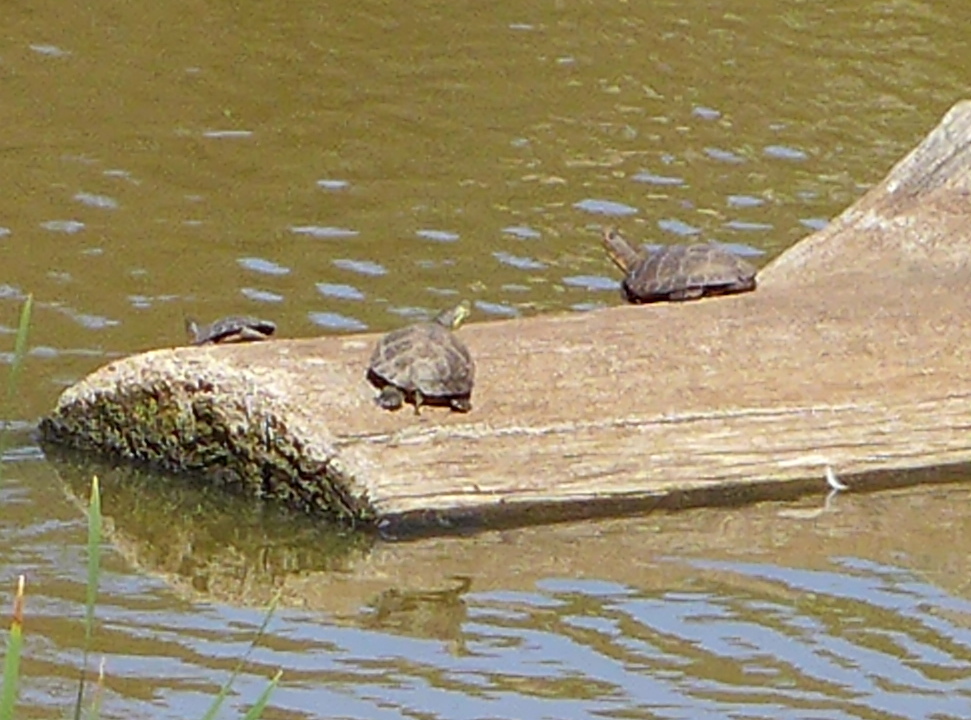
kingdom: Animalia
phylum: Chordata
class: Testudines
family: Emydidae
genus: Actinemys
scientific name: Actinemys marmorata
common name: Western pond turtle
